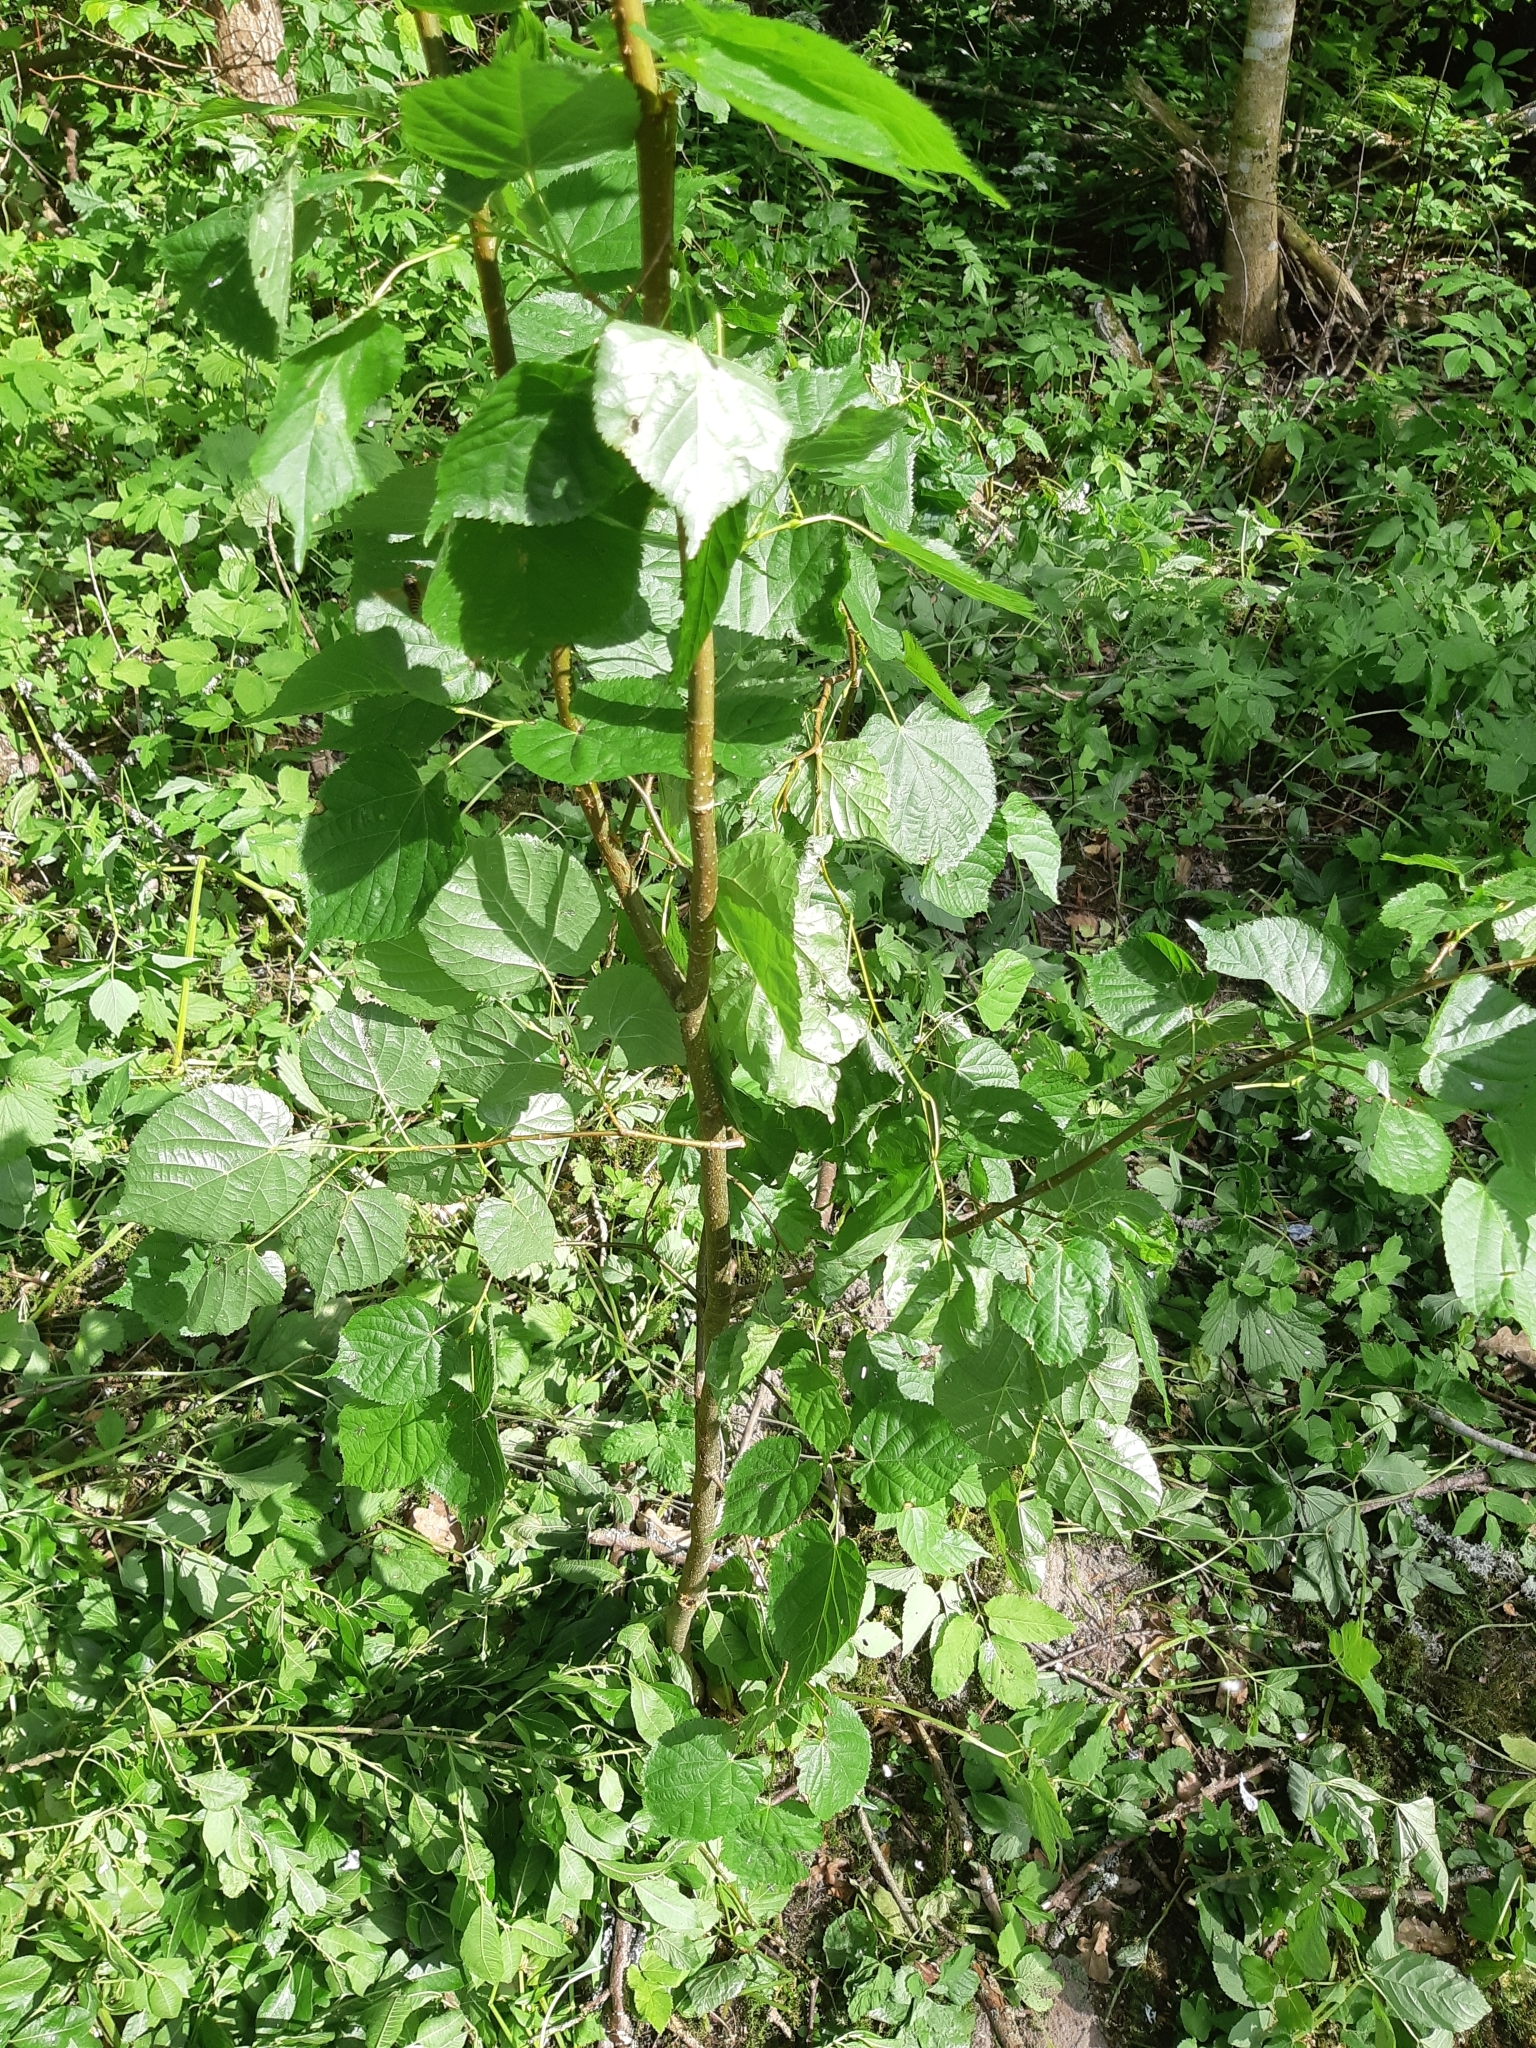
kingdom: Plantae
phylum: Tracheophyta
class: Magnoliopsida
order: Malvales
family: Malvaceae
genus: Tilia
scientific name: Tilia cordata
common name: Small-leaved lime
